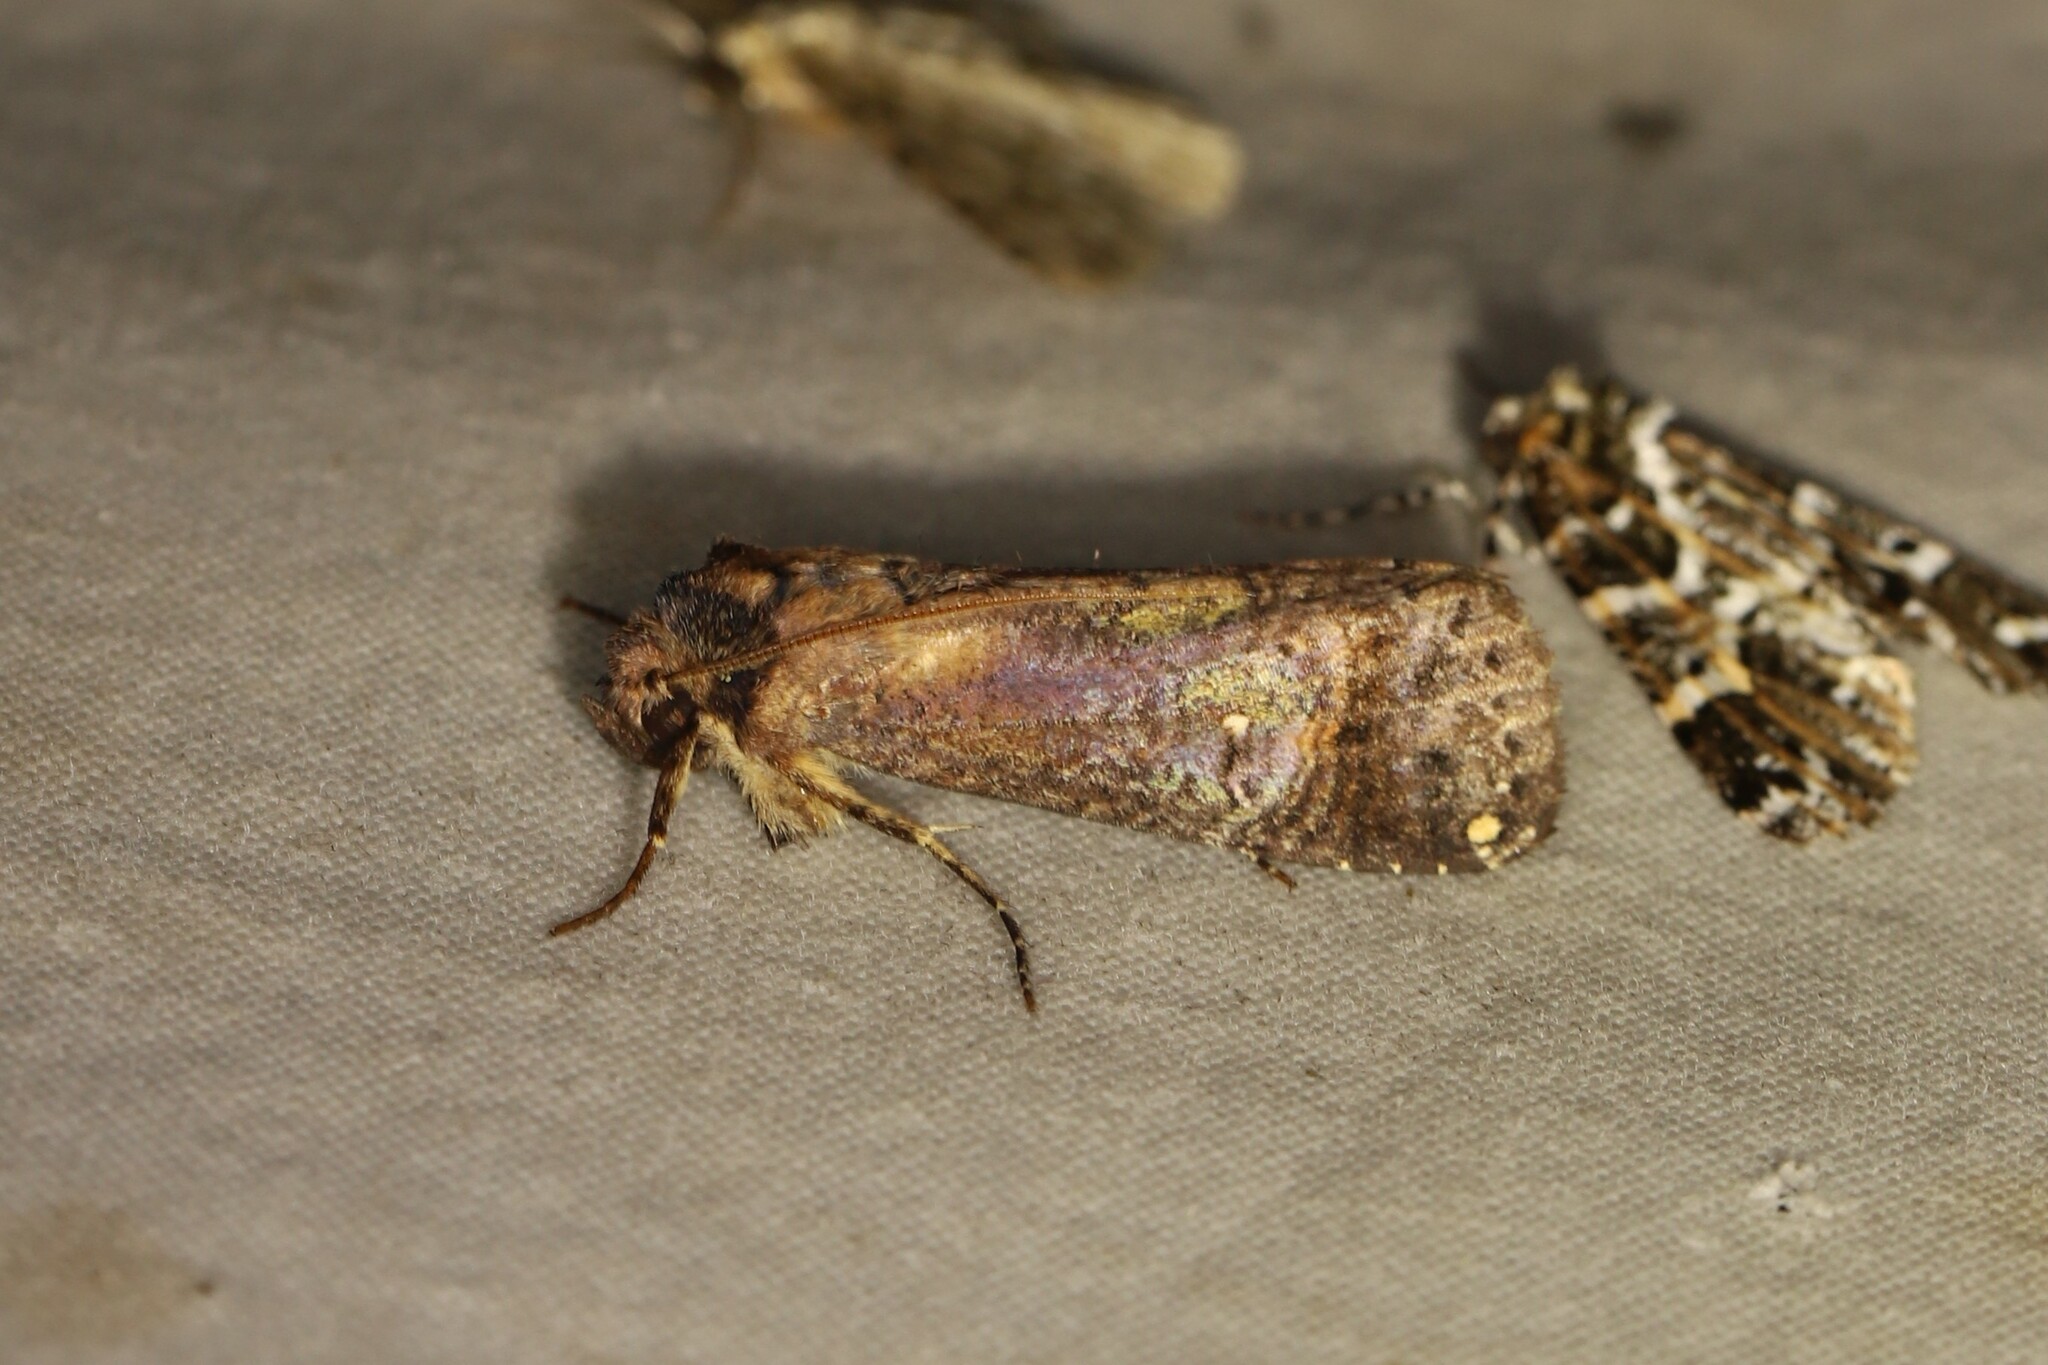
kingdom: Animalia
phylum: Arthropoda
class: Insecta
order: Lepidoptera
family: Notodontidae
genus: Tachuda
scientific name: Tachuda discreta
